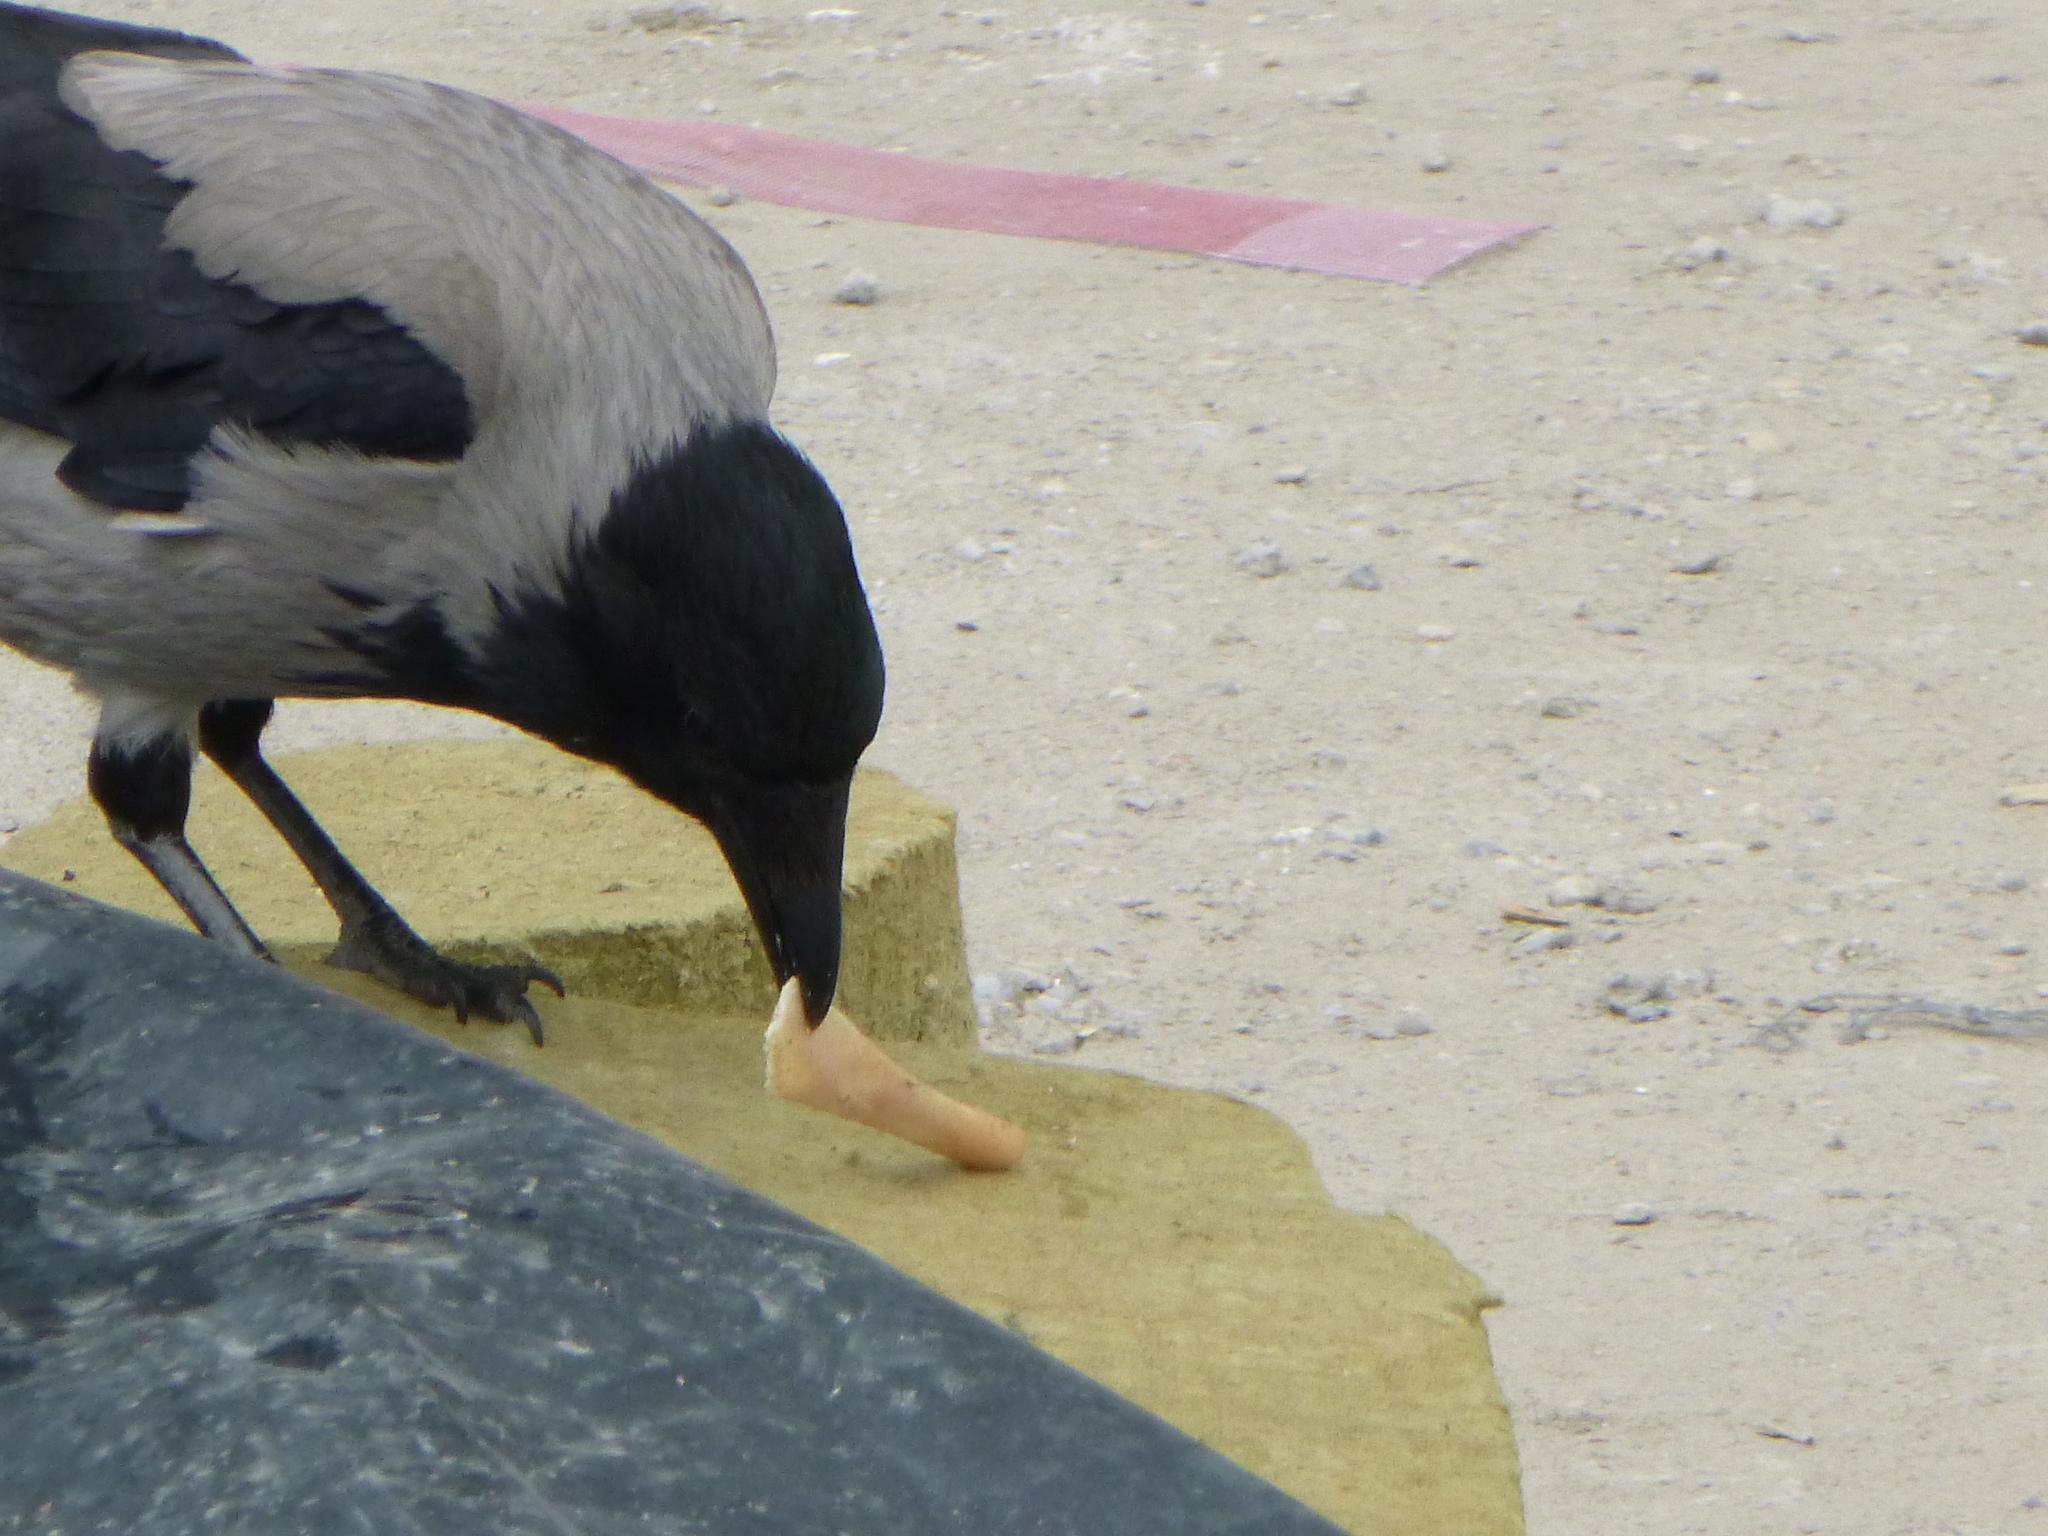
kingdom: Animalia
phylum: Chordata
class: Aves
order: Passeriformes
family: Corvidae
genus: Corvus
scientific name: Corvus cornix
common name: Hooded crow
